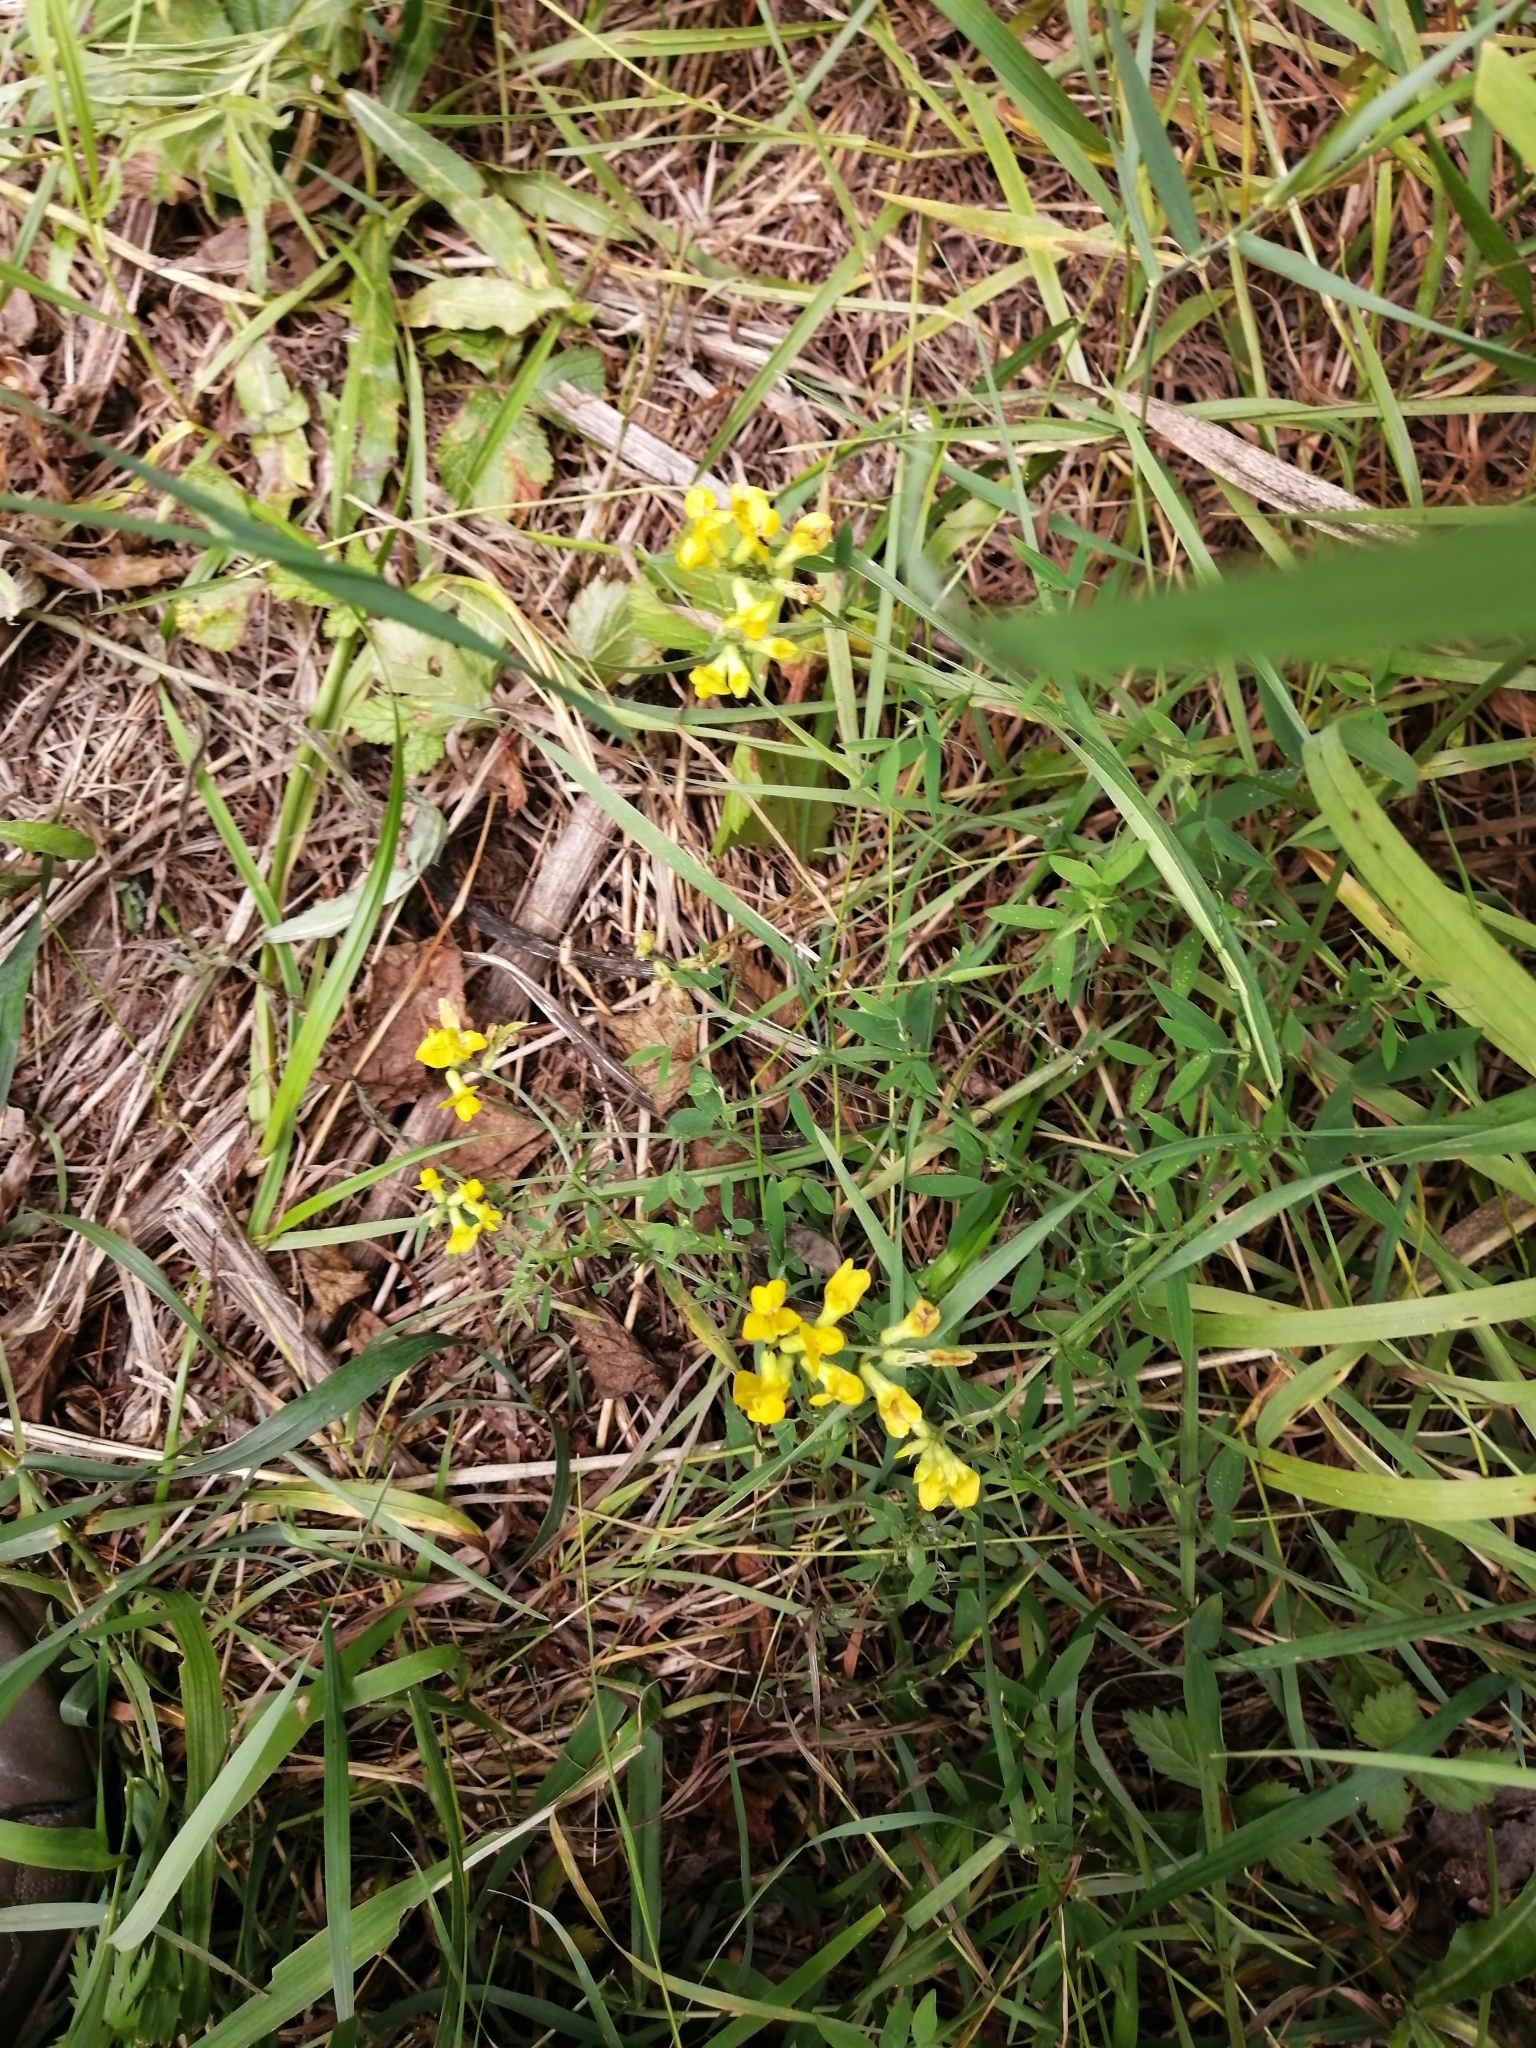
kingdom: Plantae
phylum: Tracheophyta
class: Magnoliopsida
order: Fabales
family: Fabaceae
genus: Lathyrus
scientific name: Lathyrus pratensis
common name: Meadow vetchling
